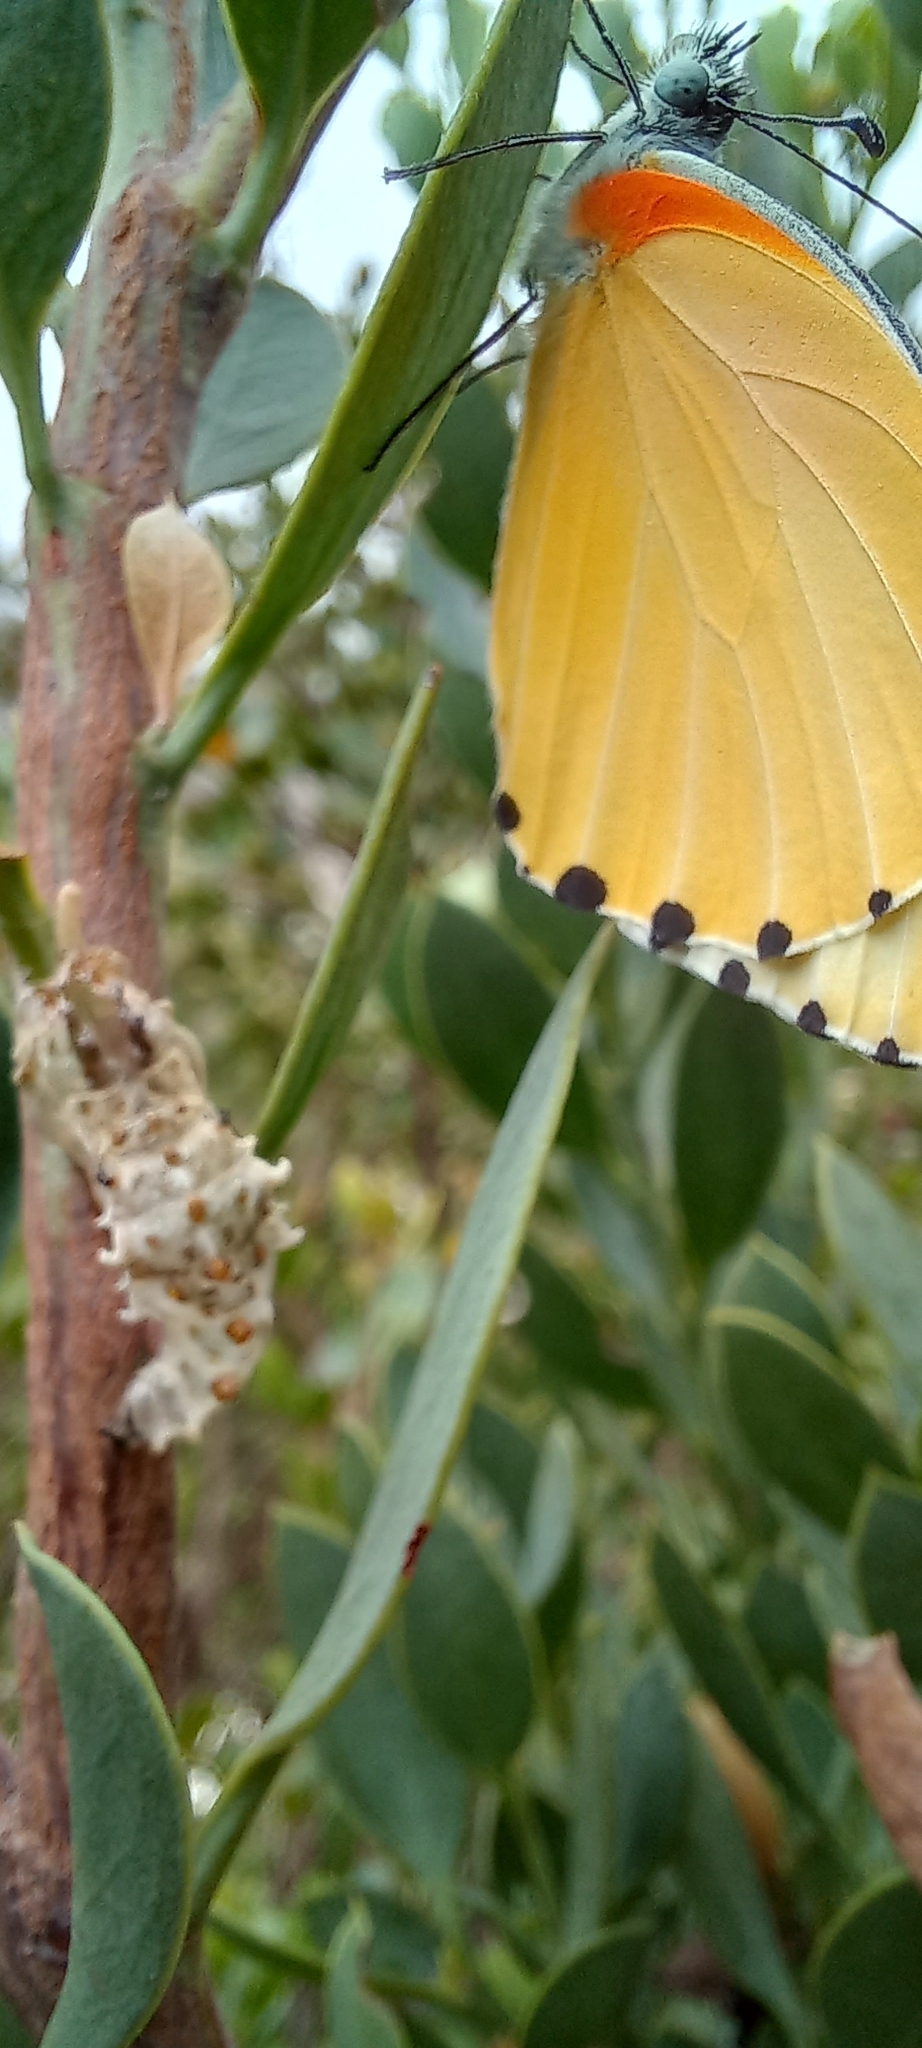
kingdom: Animalia
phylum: Arthropoda
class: Insecta
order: Lepidoptera
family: Pieridae
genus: Mylothris
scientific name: Mylothris agathina
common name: Eastern dotted border
